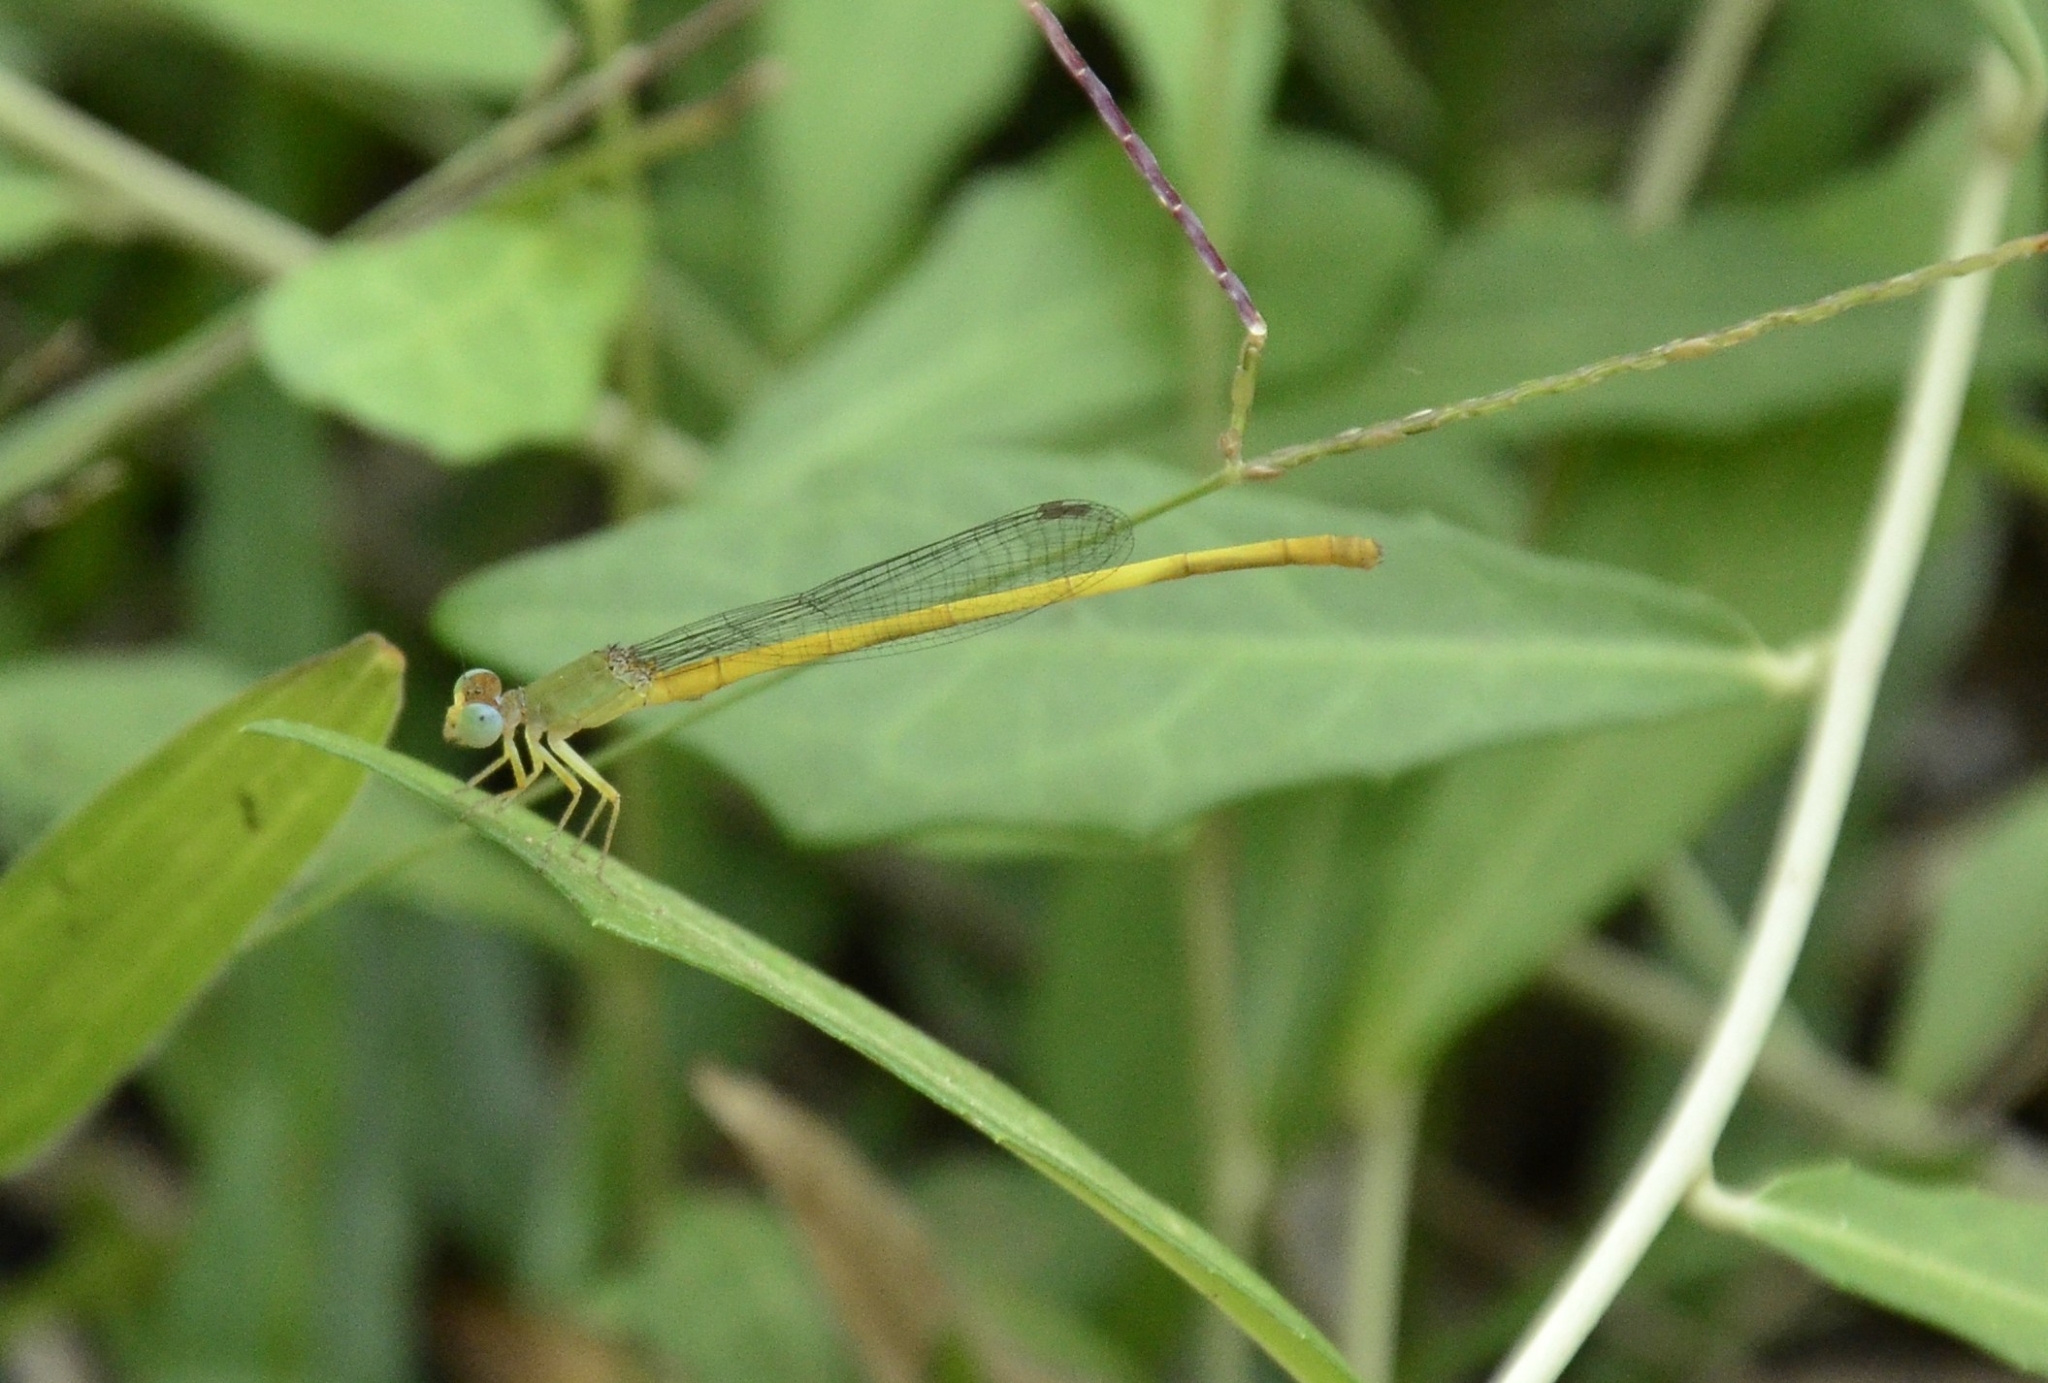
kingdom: Animalia
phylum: Arthropoda
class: Insecta
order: Odonata
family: Coenagrionidae
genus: Ceriagrion
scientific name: Ceriagrion coromandelianum
